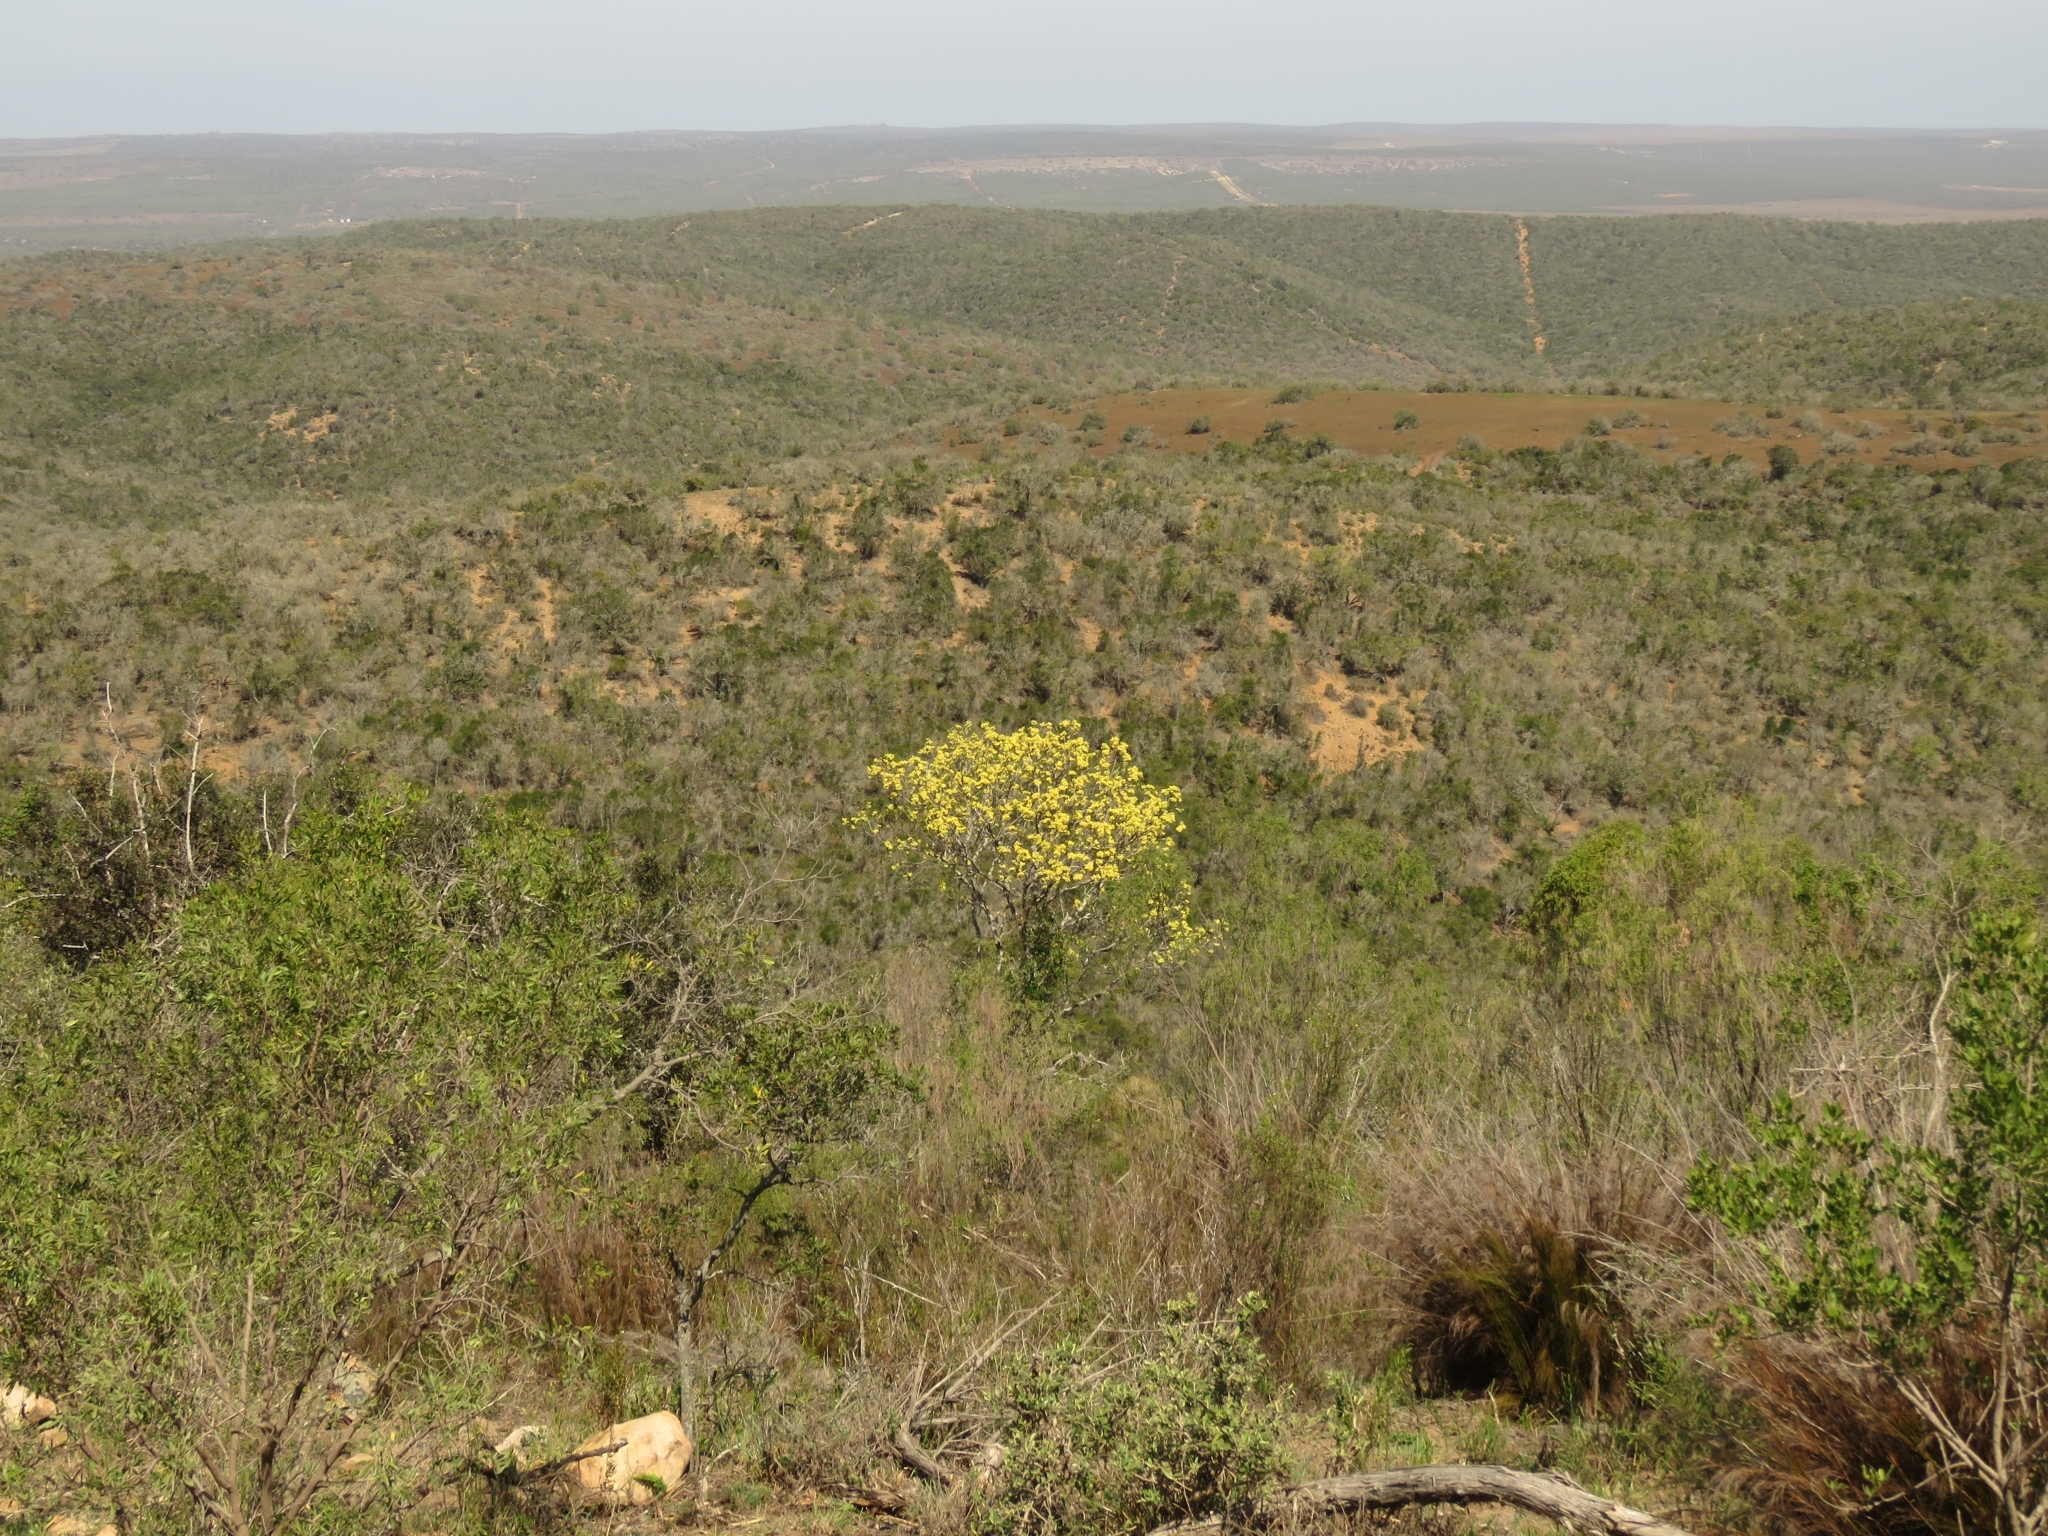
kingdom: Plantae
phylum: Tracheophyta
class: Magnoliopsida
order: Sapindales
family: Rutaceae
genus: Ptaeroxylon
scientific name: Ptaeroxylon obliquum
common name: Sneezewood
